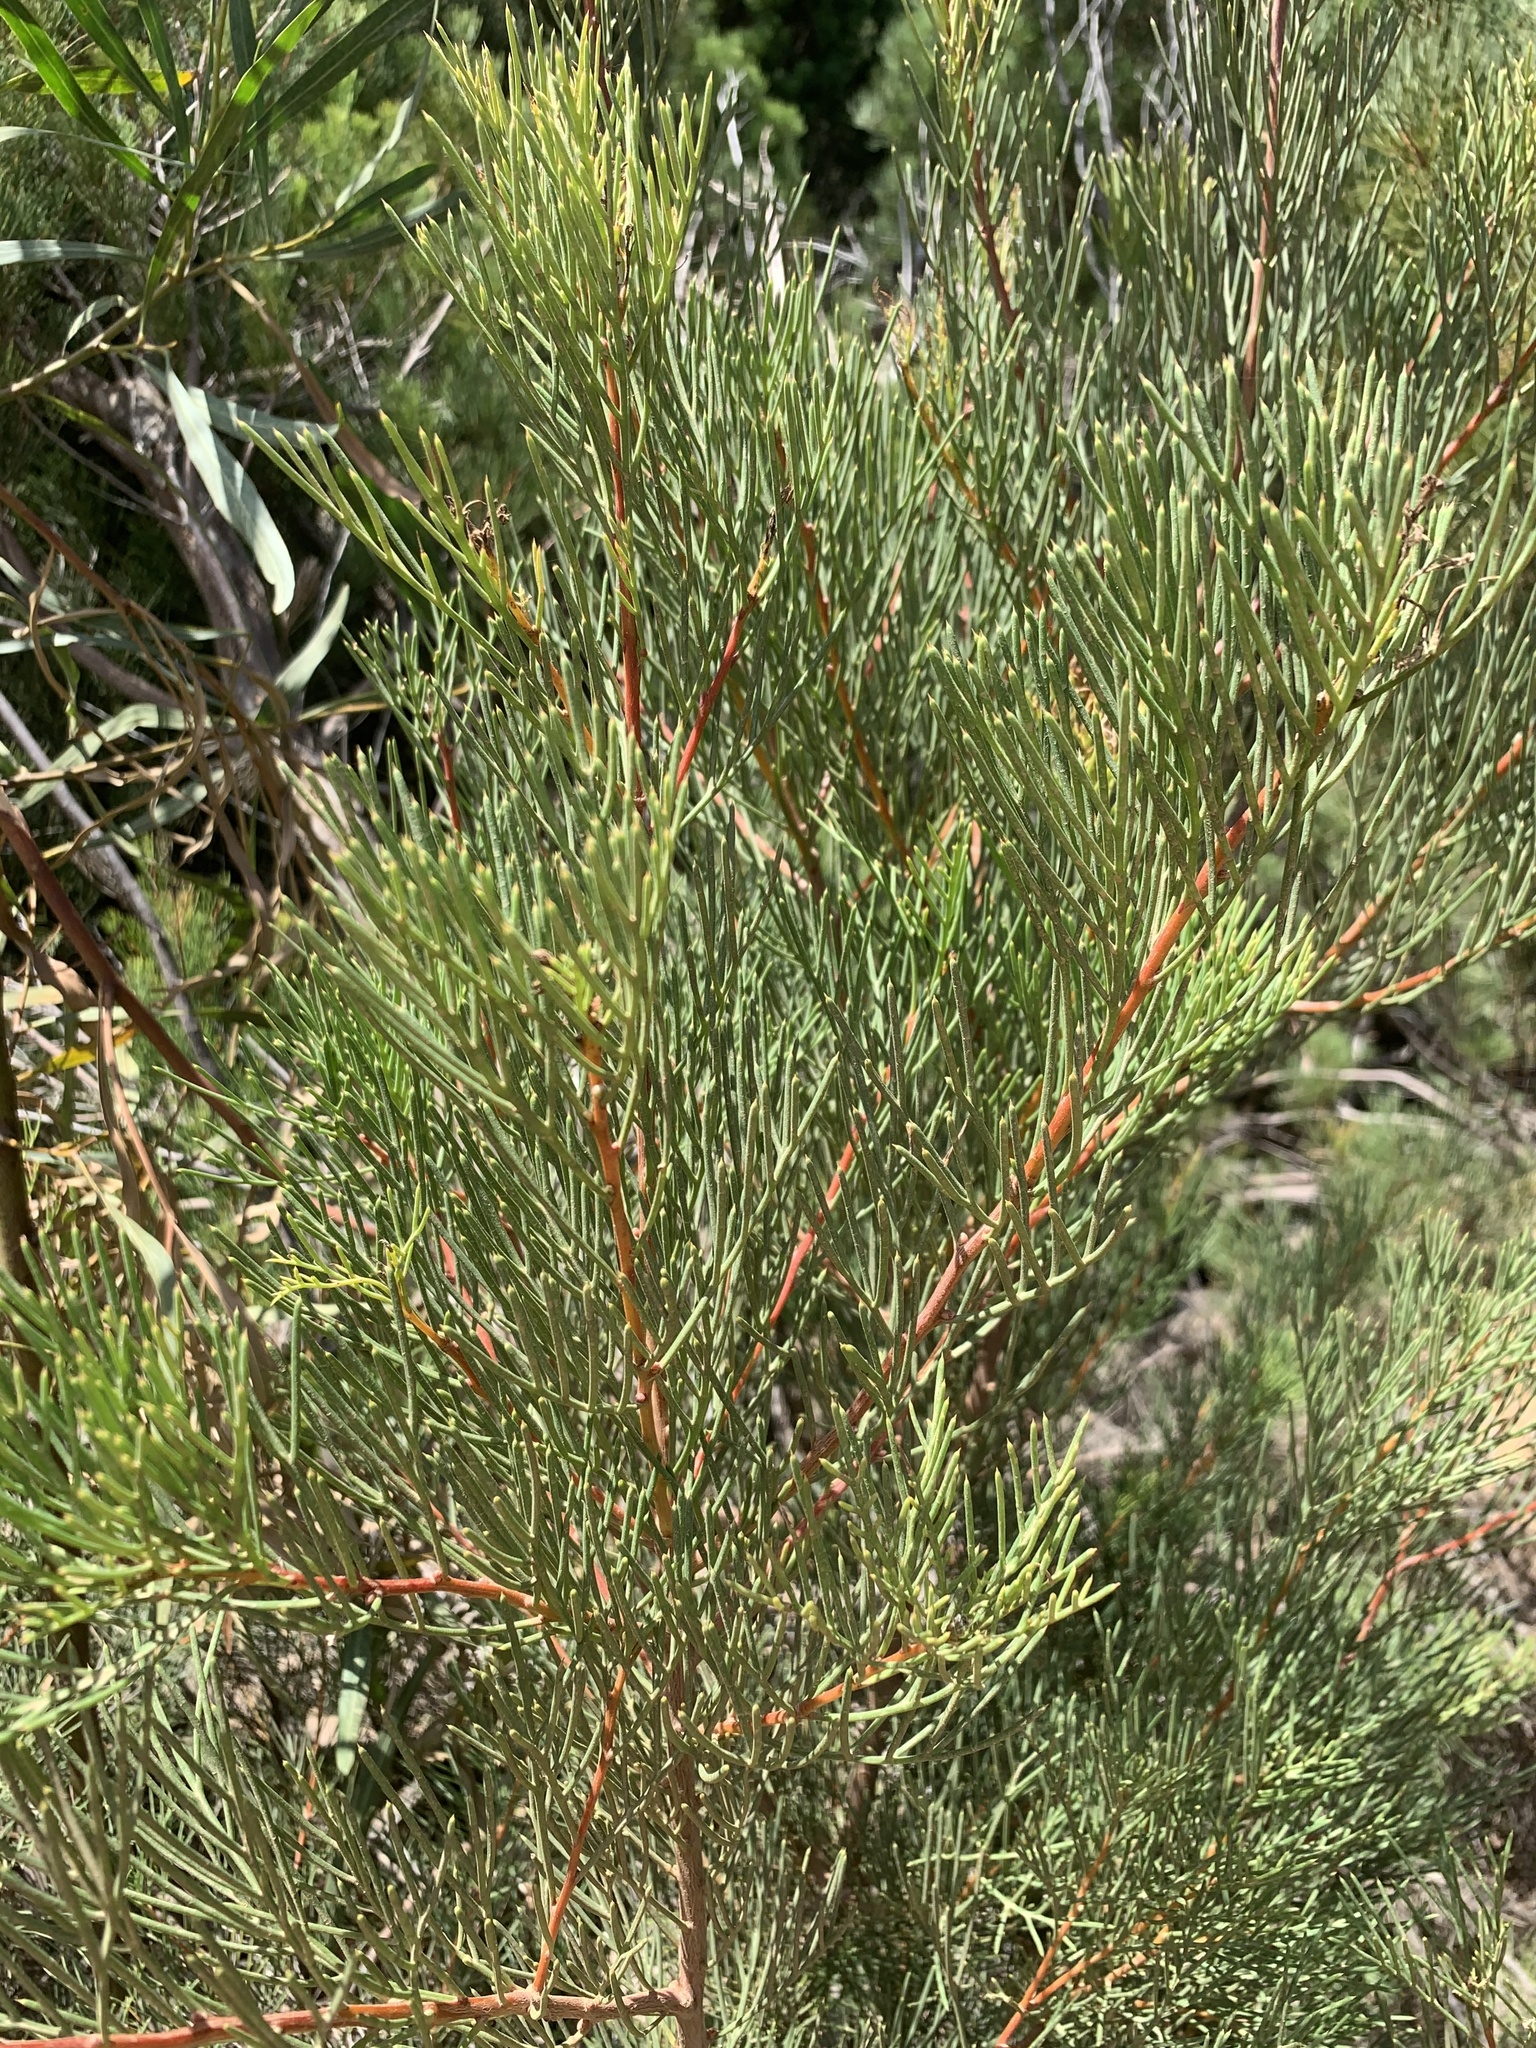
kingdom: Plantae
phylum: Tracheophyta
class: Magnoliopsida
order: Proteales
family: Proteaceae
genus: Hakea
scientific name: Hakea drupacea
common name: Sweet hakea
